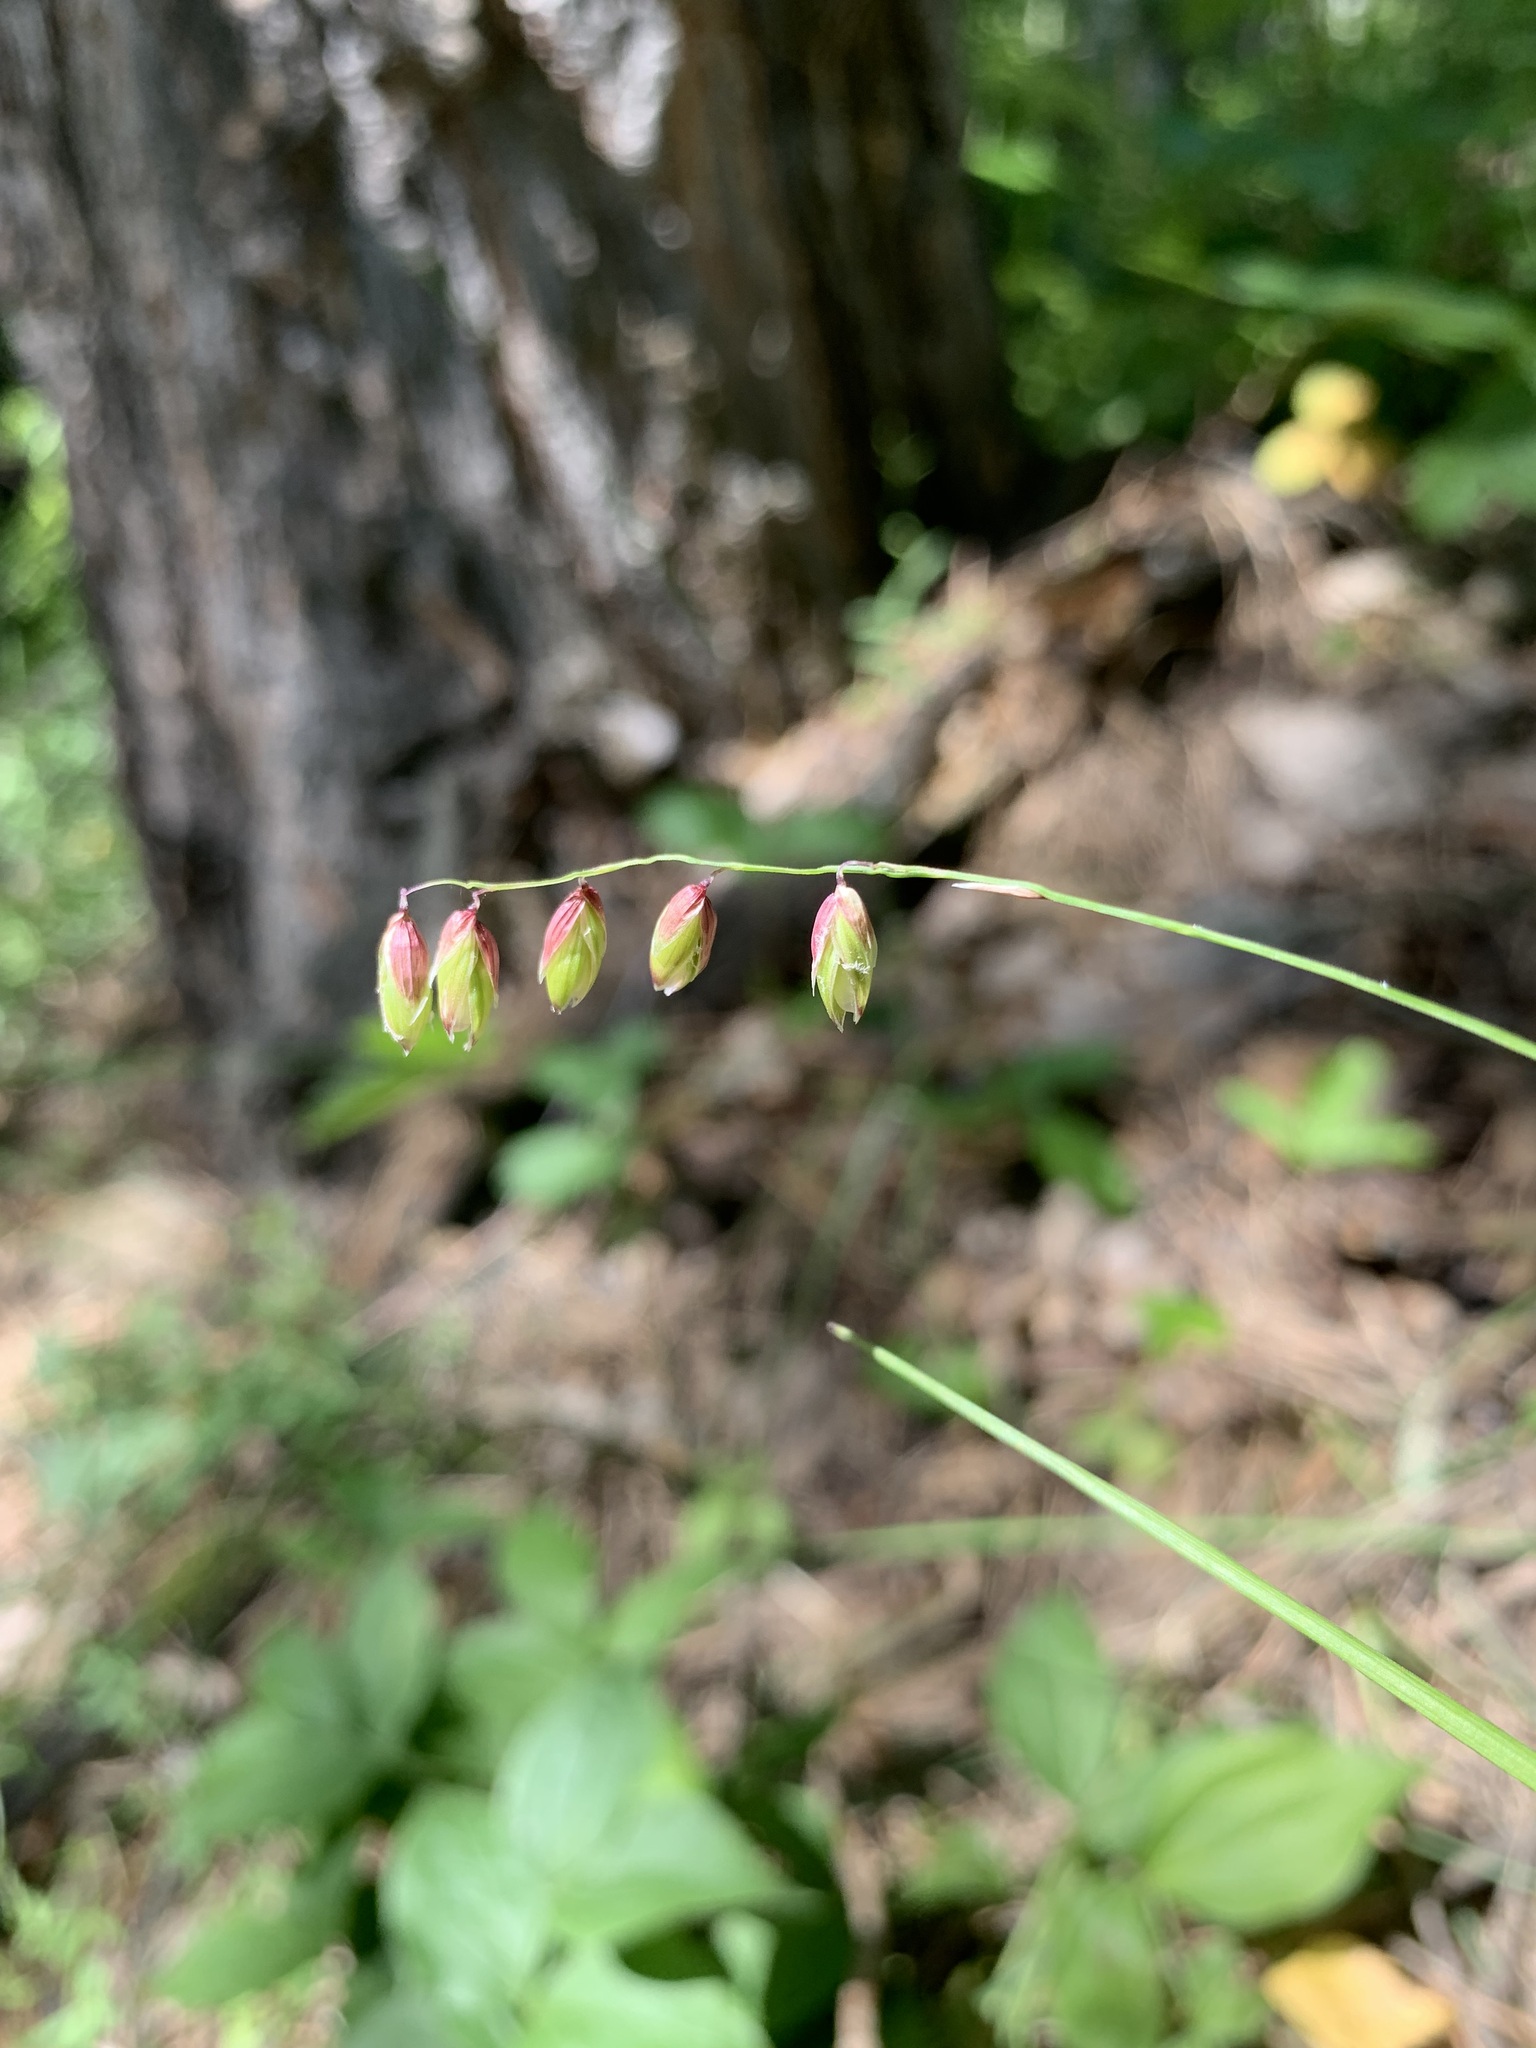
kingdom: Plantae
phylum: Tracheophyta
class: Liliopsida
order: Poales
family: Poaceae
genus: Melica
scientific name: Melica nutans
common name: Mountain melick
